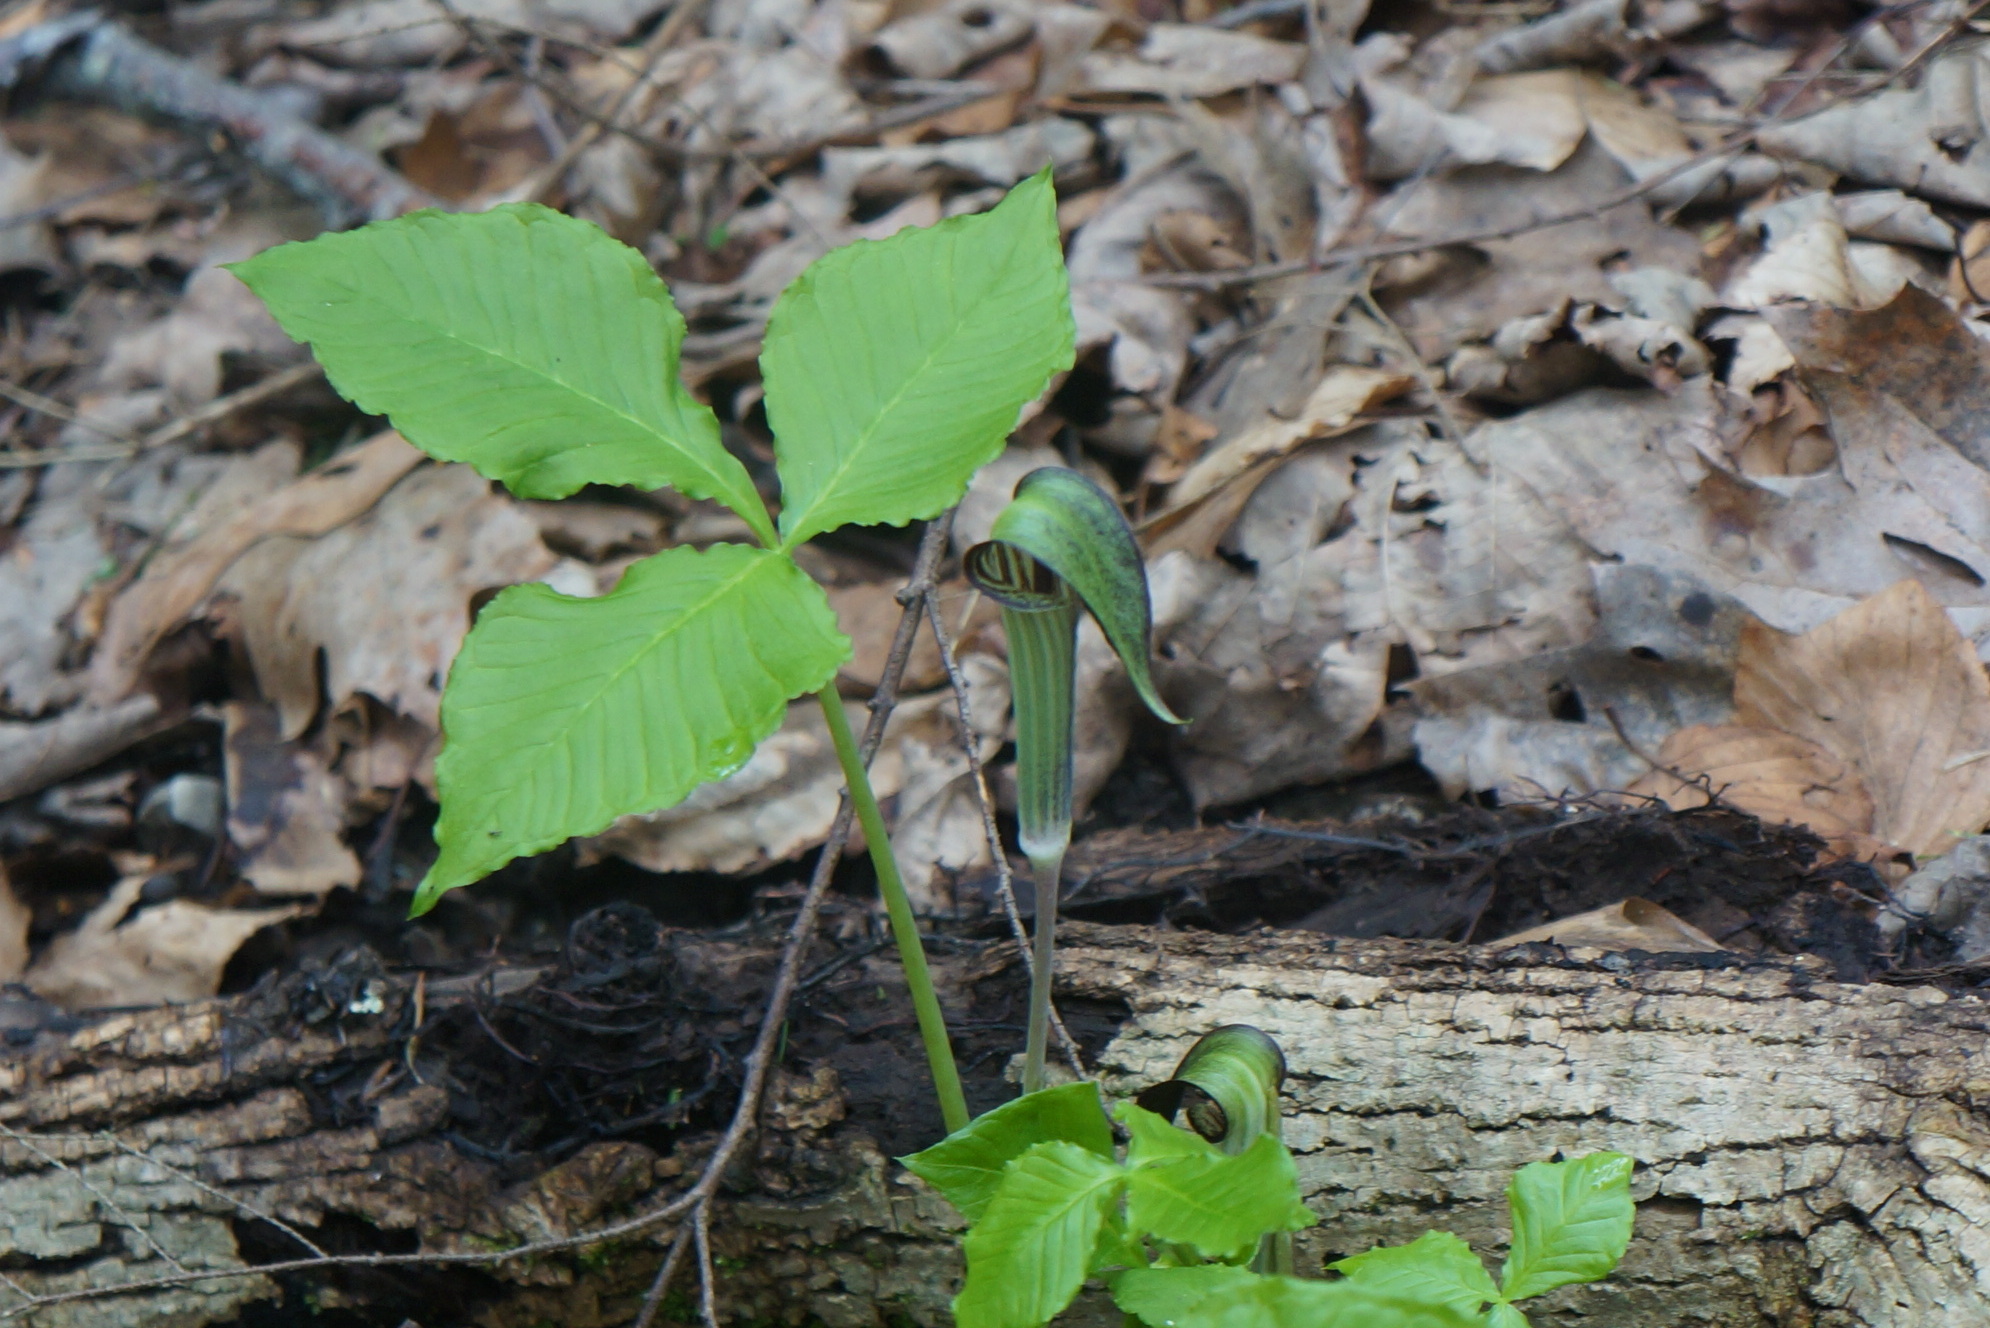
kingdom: Plantae
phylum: Tracheophyta
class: Liliopsida
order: Alismatales
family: Araceae
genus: Arisaema
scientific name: Arisaema triphyllum
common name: Jack-in-the-pulpit
